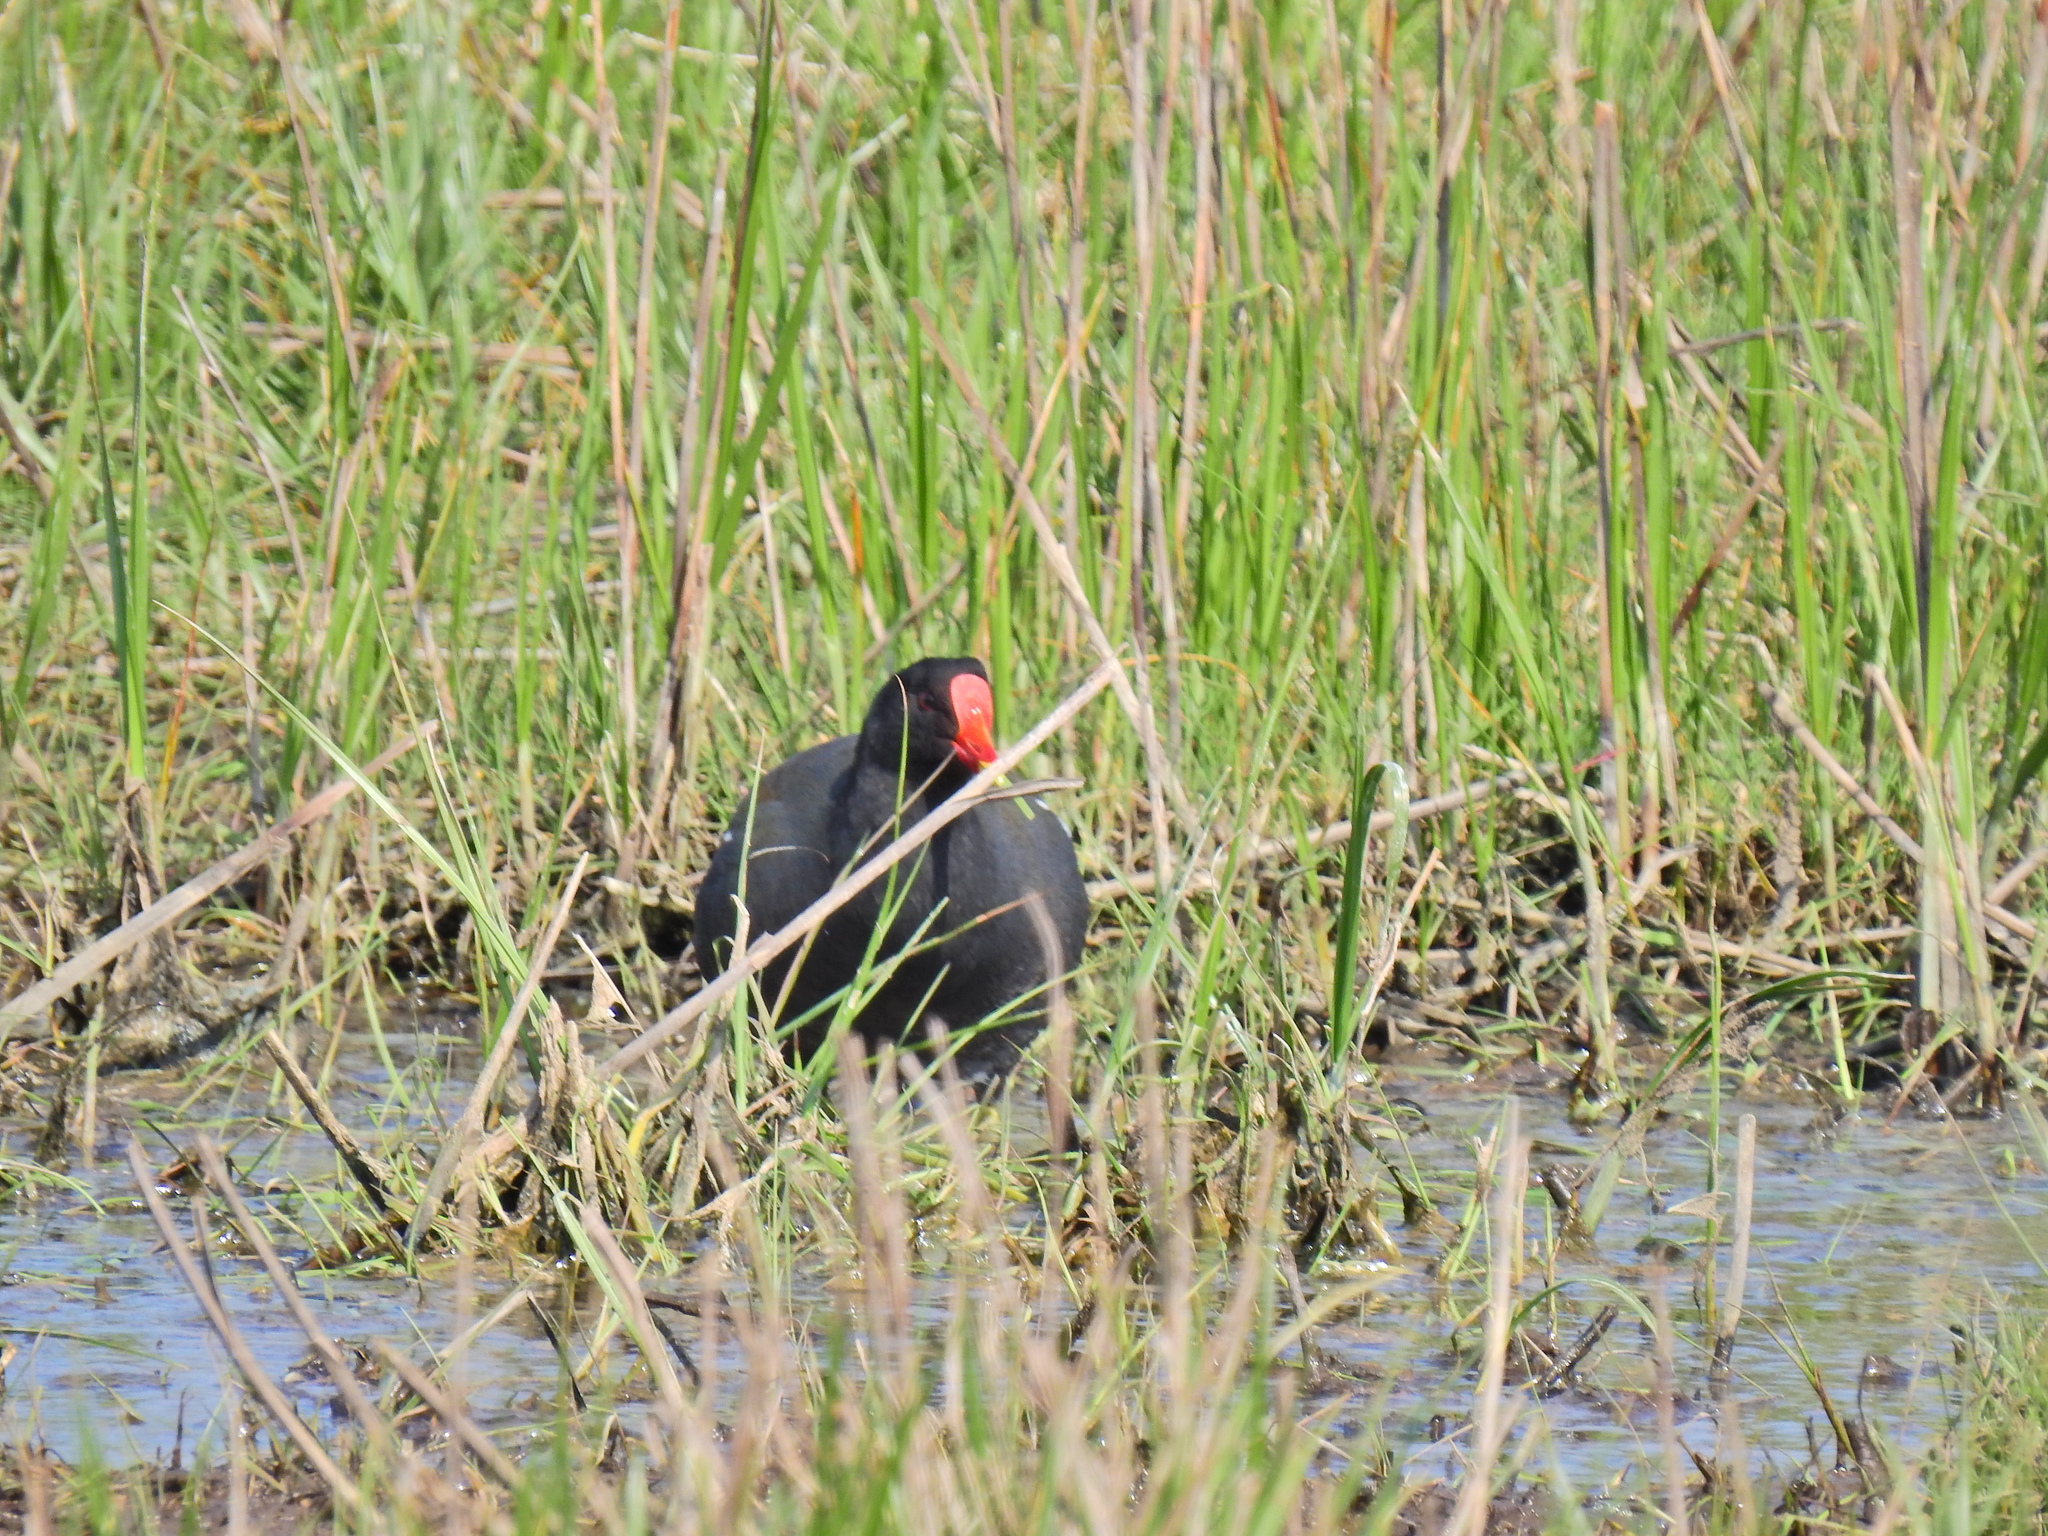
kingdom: Animalia
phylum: Chordata
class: Aves
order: Gruiformes
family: Rallidae
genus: Gallinula
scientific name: Gallinula chloropus
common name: Common moorhen
